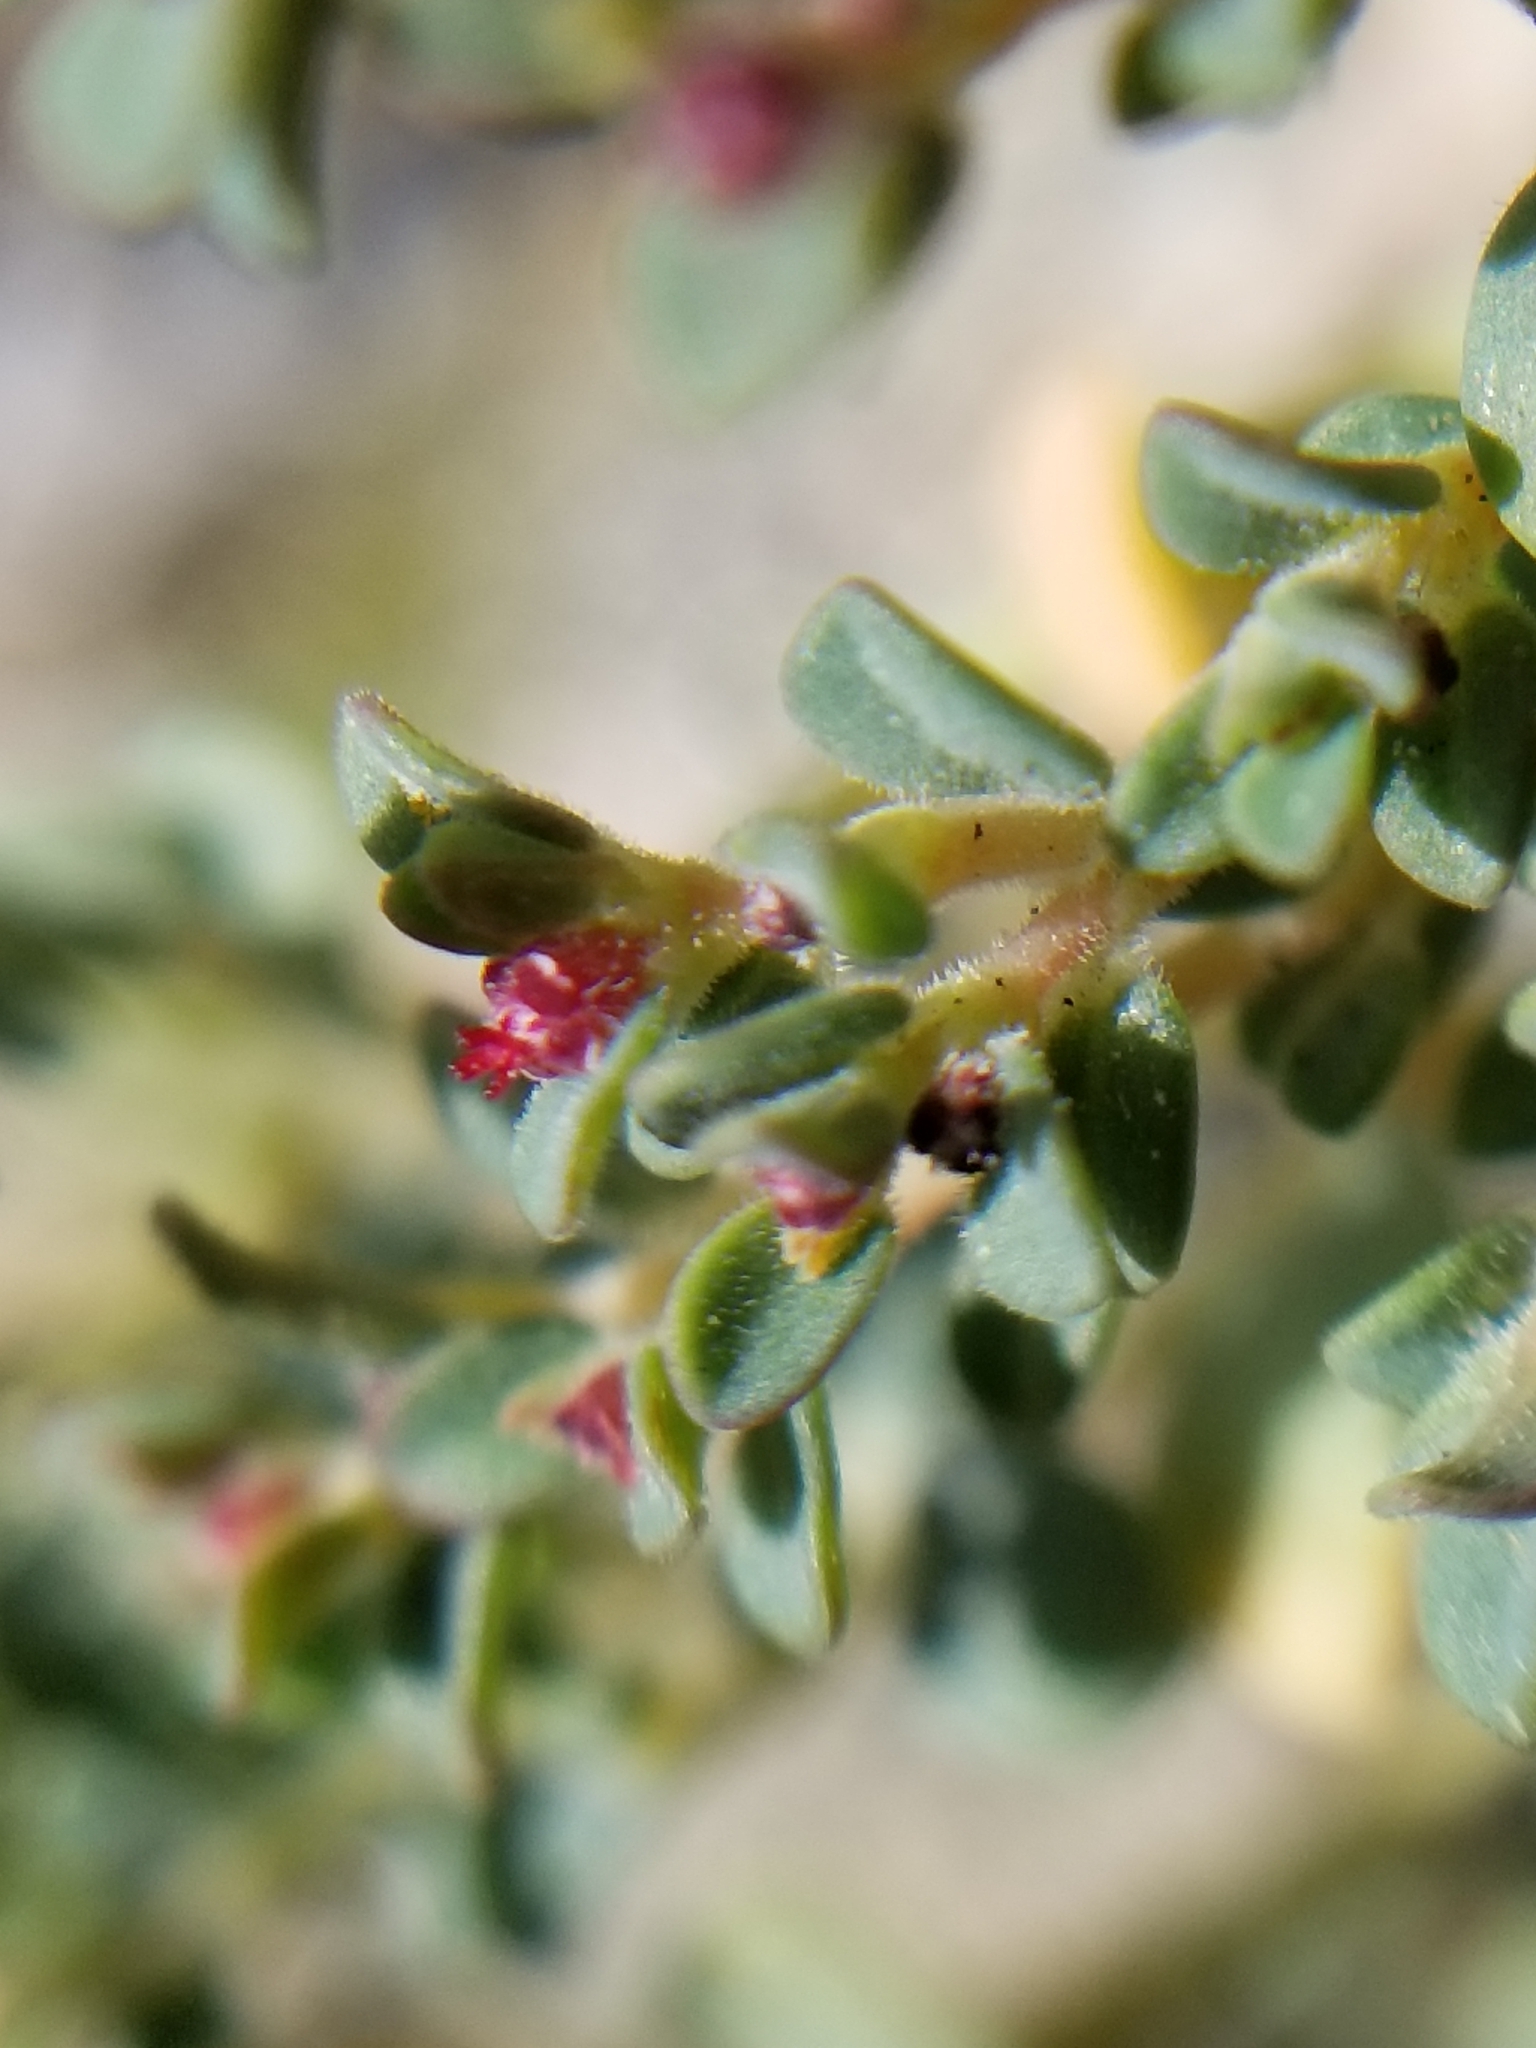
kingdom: Plantae
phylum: Tracheophyta
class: Magnoliopsida
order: Malpighiales
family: Euphorbiaceae
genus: Euphorbia
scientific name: Euphorbia polycarpa
